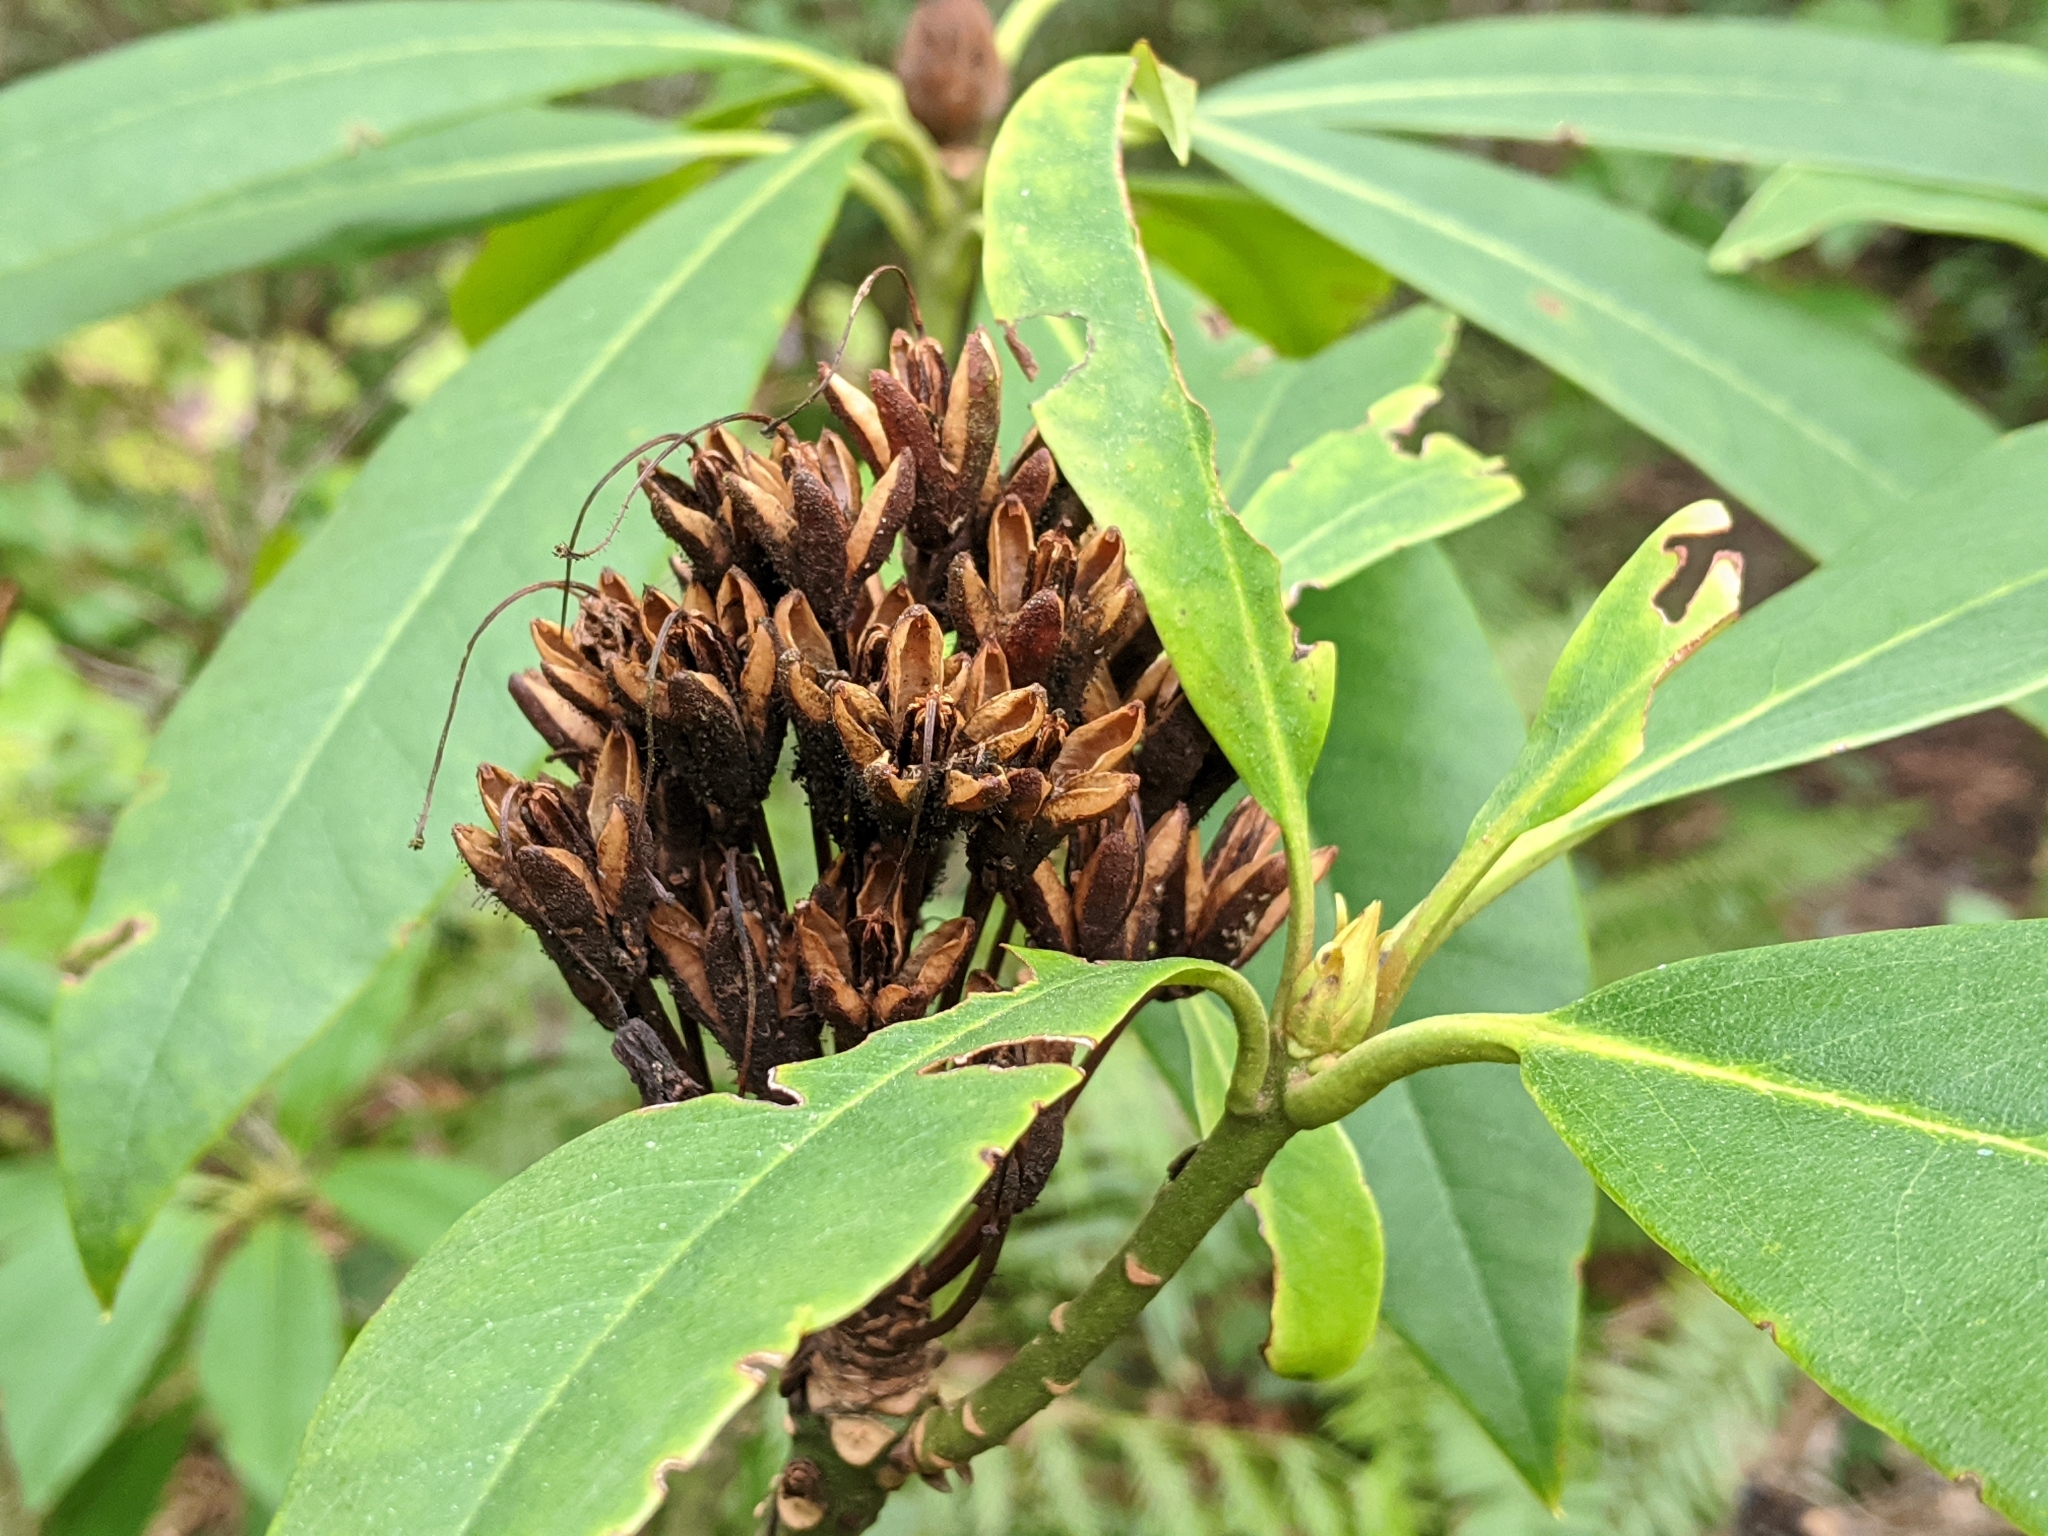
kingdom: Plantae
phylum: Tracheophyta
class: Magnoliopsida
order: Ericales
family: Ericaceae
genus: Rhododendron
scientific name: Rhododendron macrophyllum
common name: California rose bay
